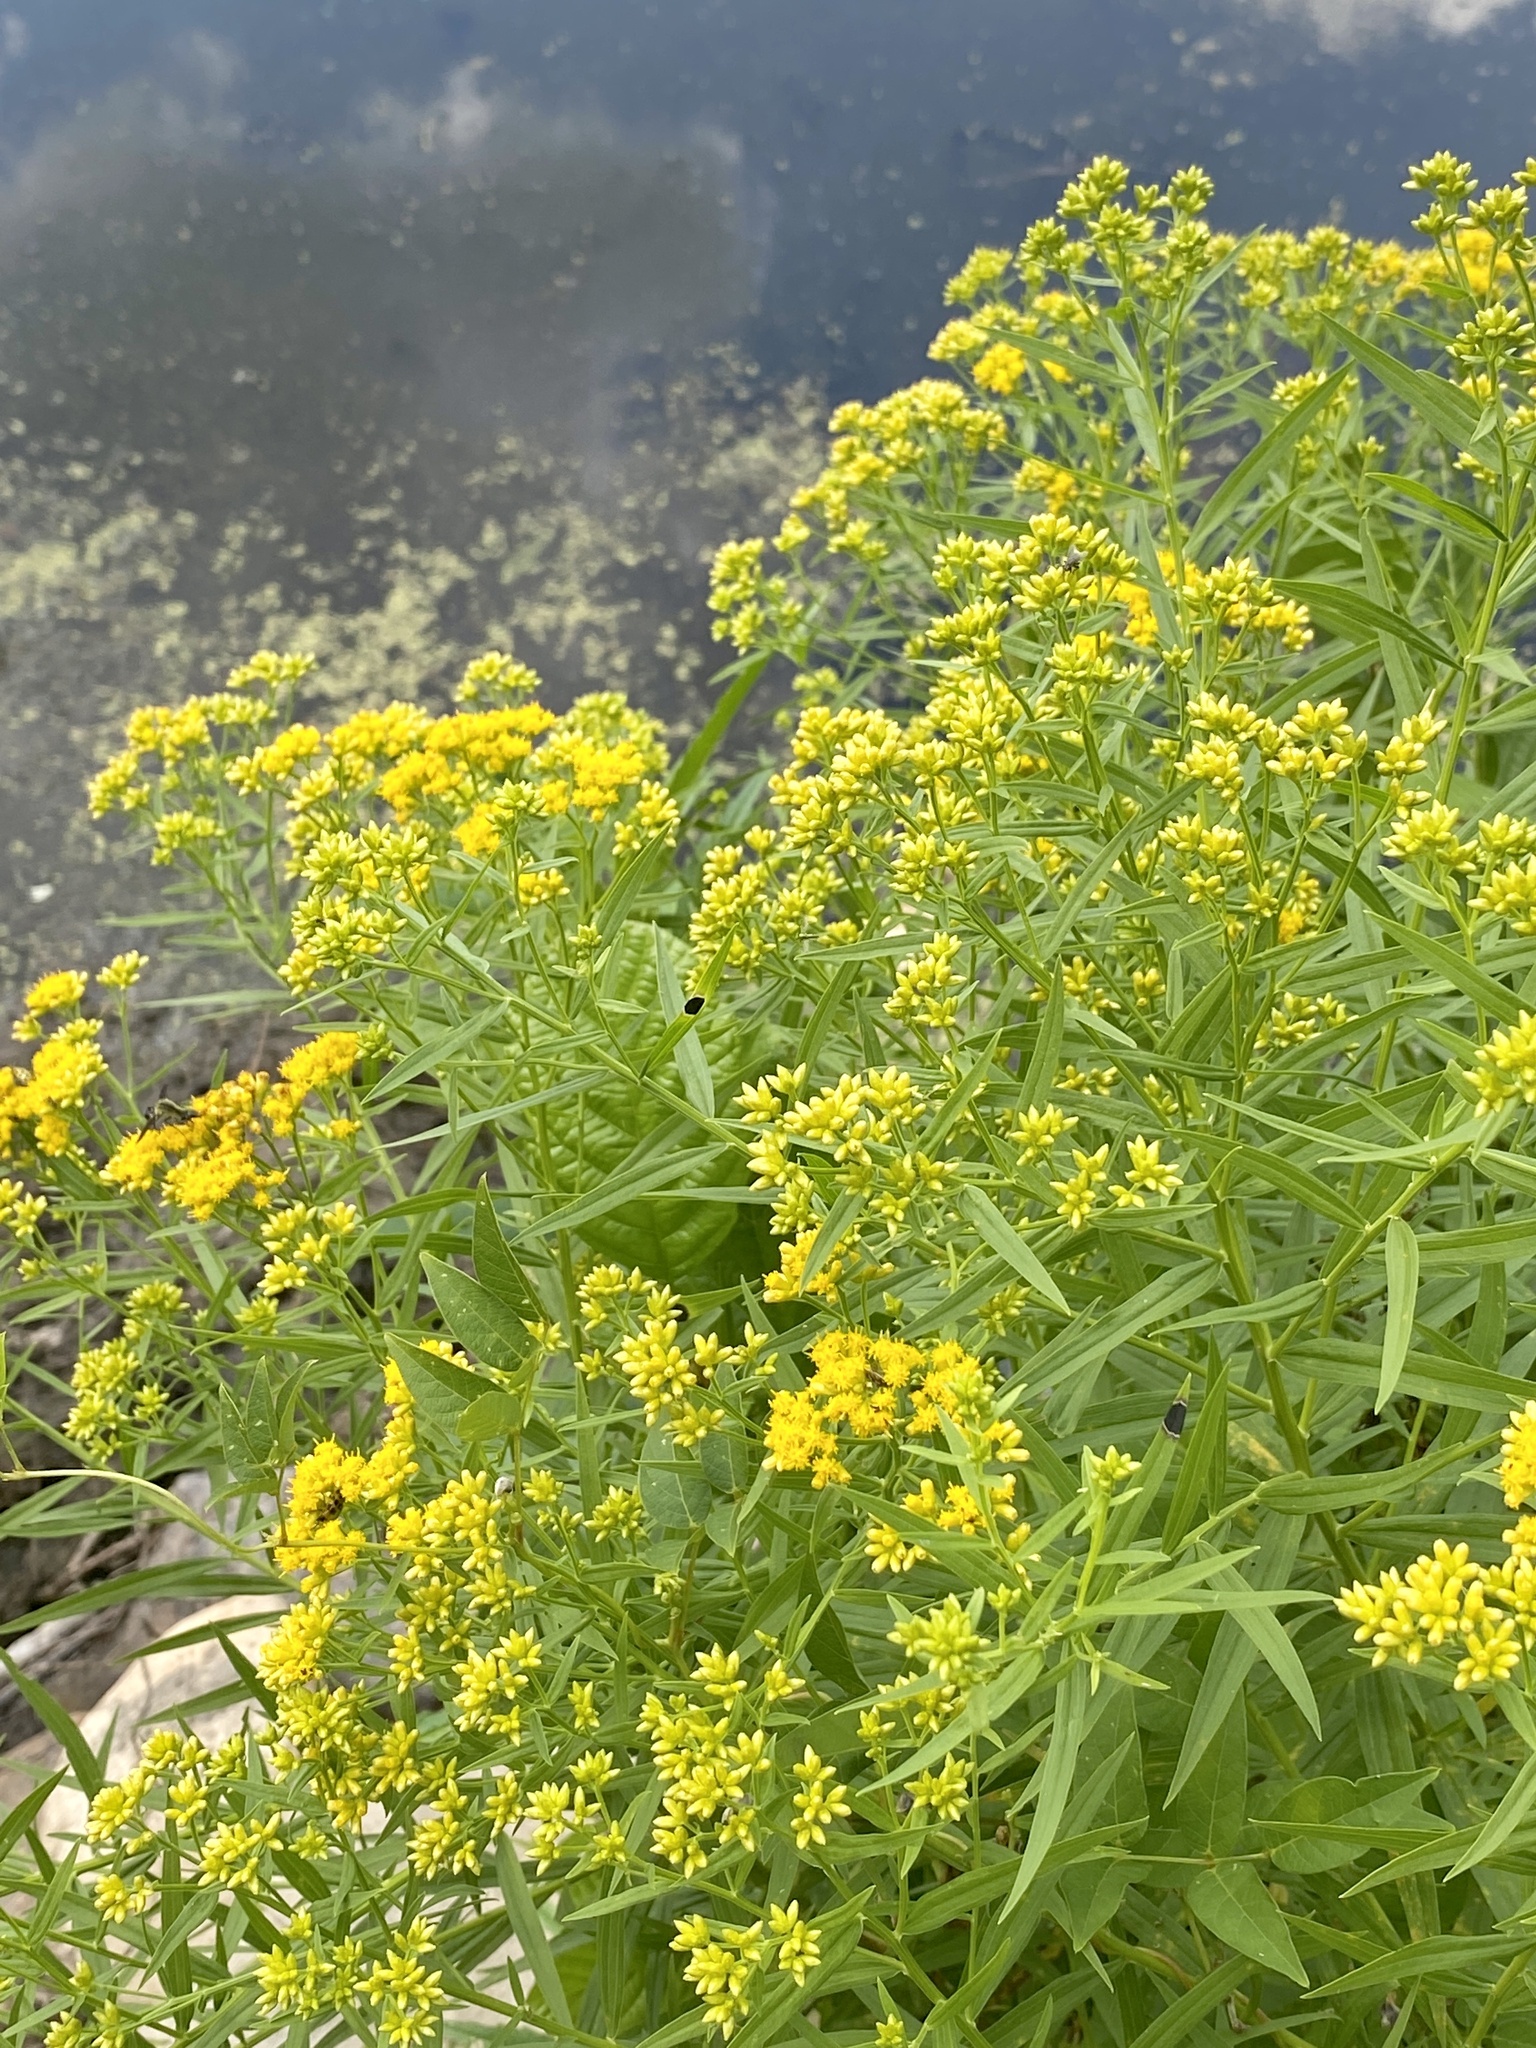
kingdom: Plantae
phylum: Tracheophyta
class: Magnoliopsida
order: Asterales
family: Asteraceae
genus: Euthamia
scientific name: Euthamia graminifolia
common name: Common goldentop
